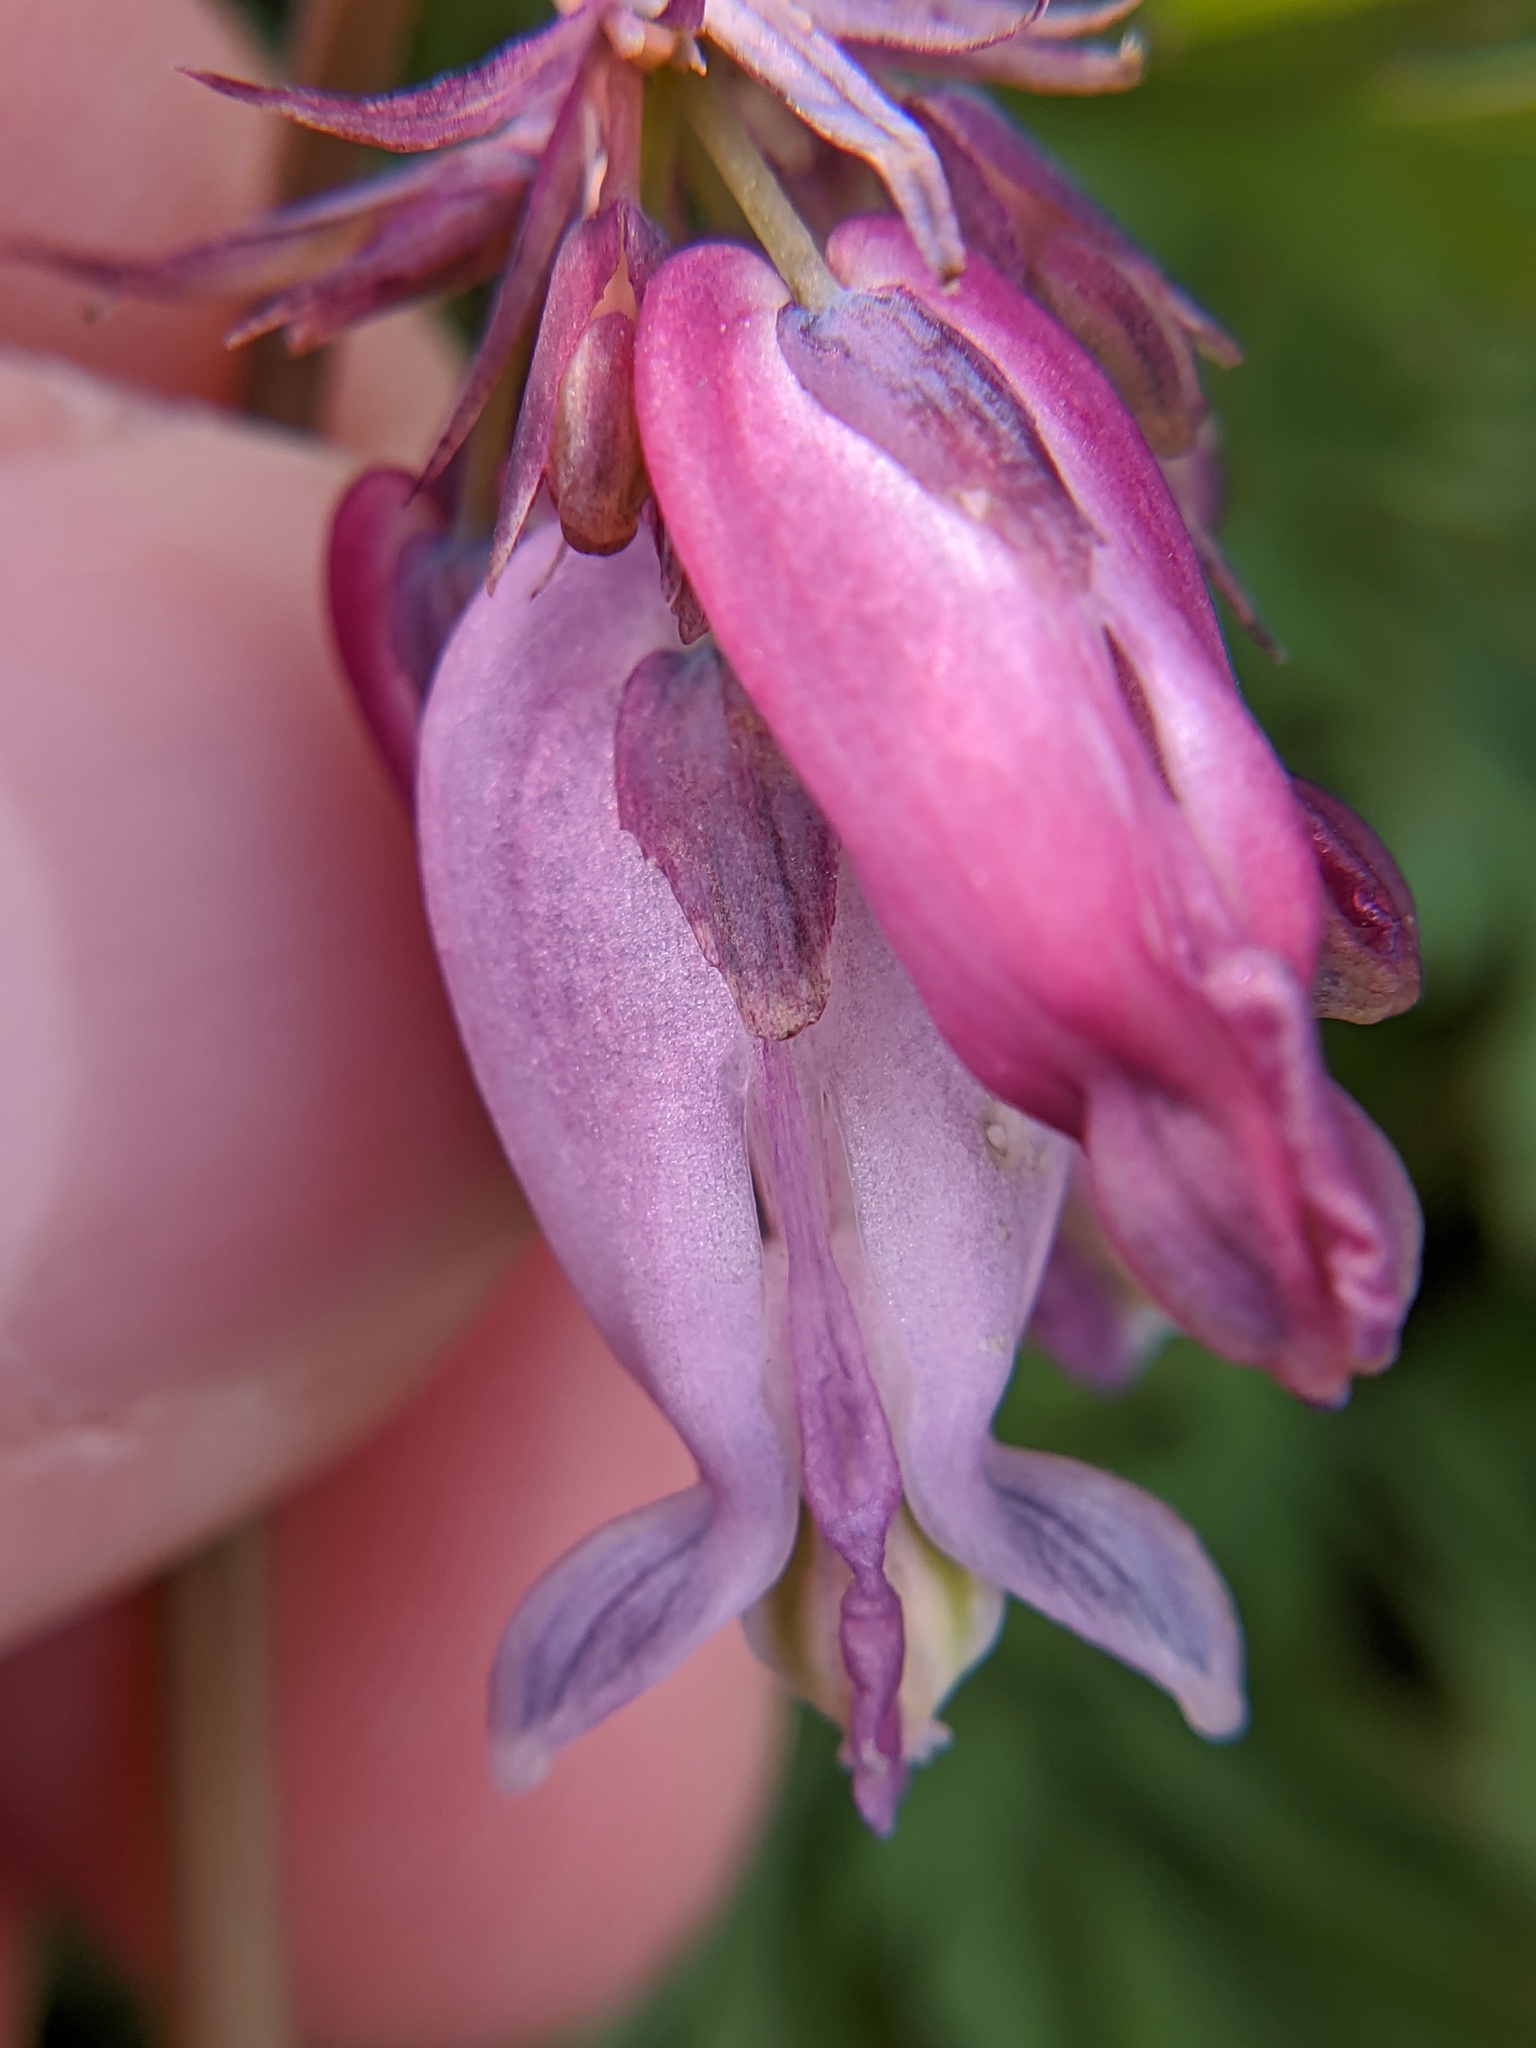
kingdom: Plantae
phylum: Tracheophyta
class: Magnoliopsida
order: Ranunculales
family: Papaveraceae
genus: Dicentra
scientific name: Dicentra eximia
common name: Turkey-corn
